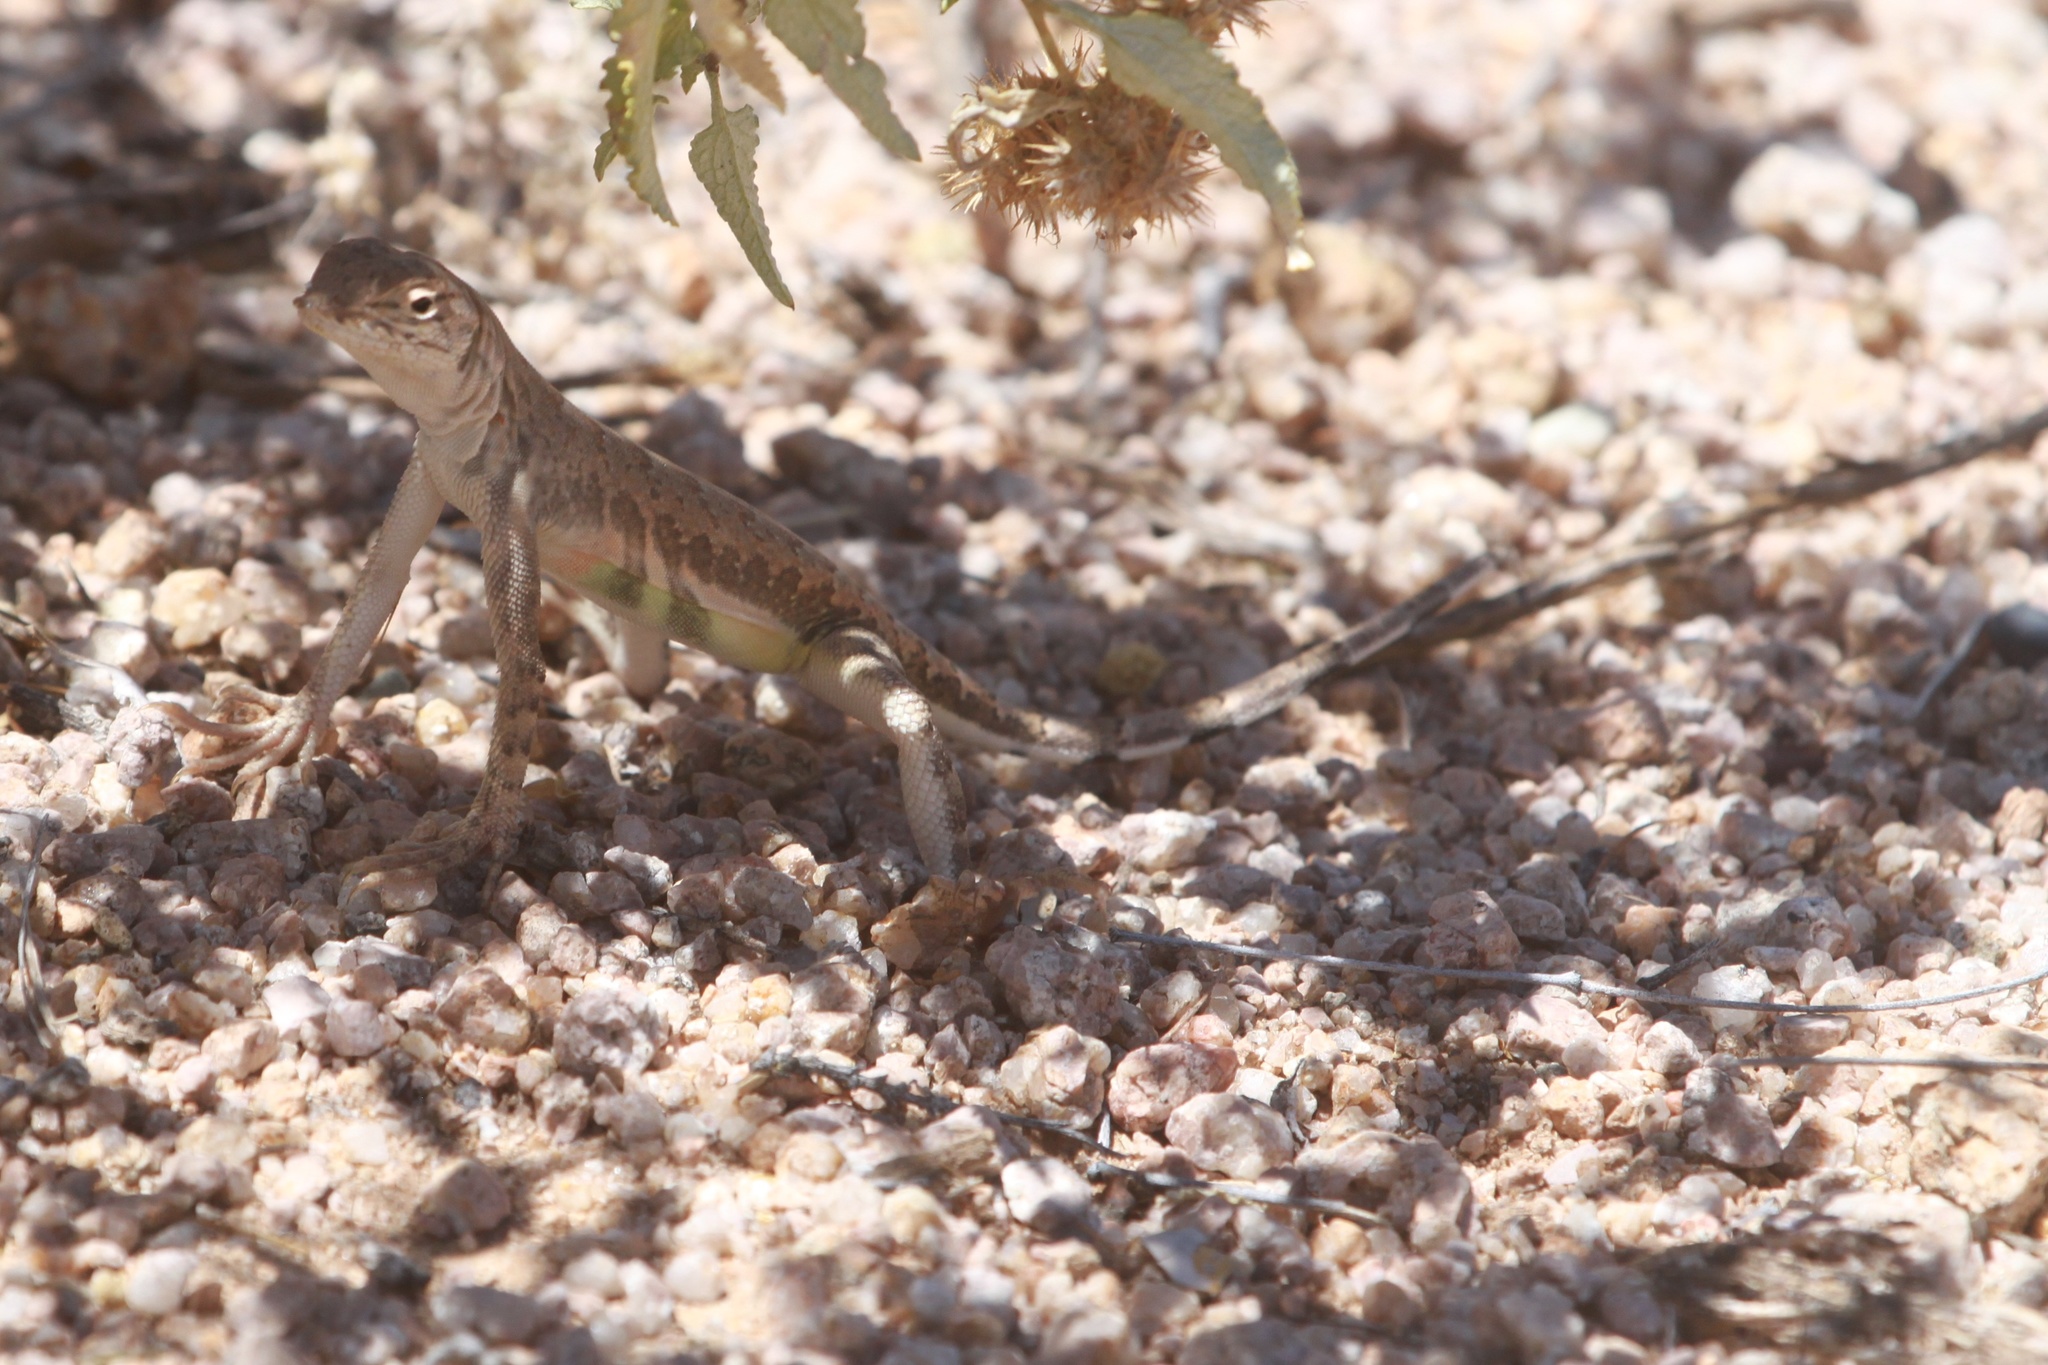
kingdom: Animalia
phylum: Chordata
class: Squamata
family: Phrynosomatidae
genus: Callisaurus
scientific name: Callisaurus draconoides
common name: Zebra-tailed lizard
